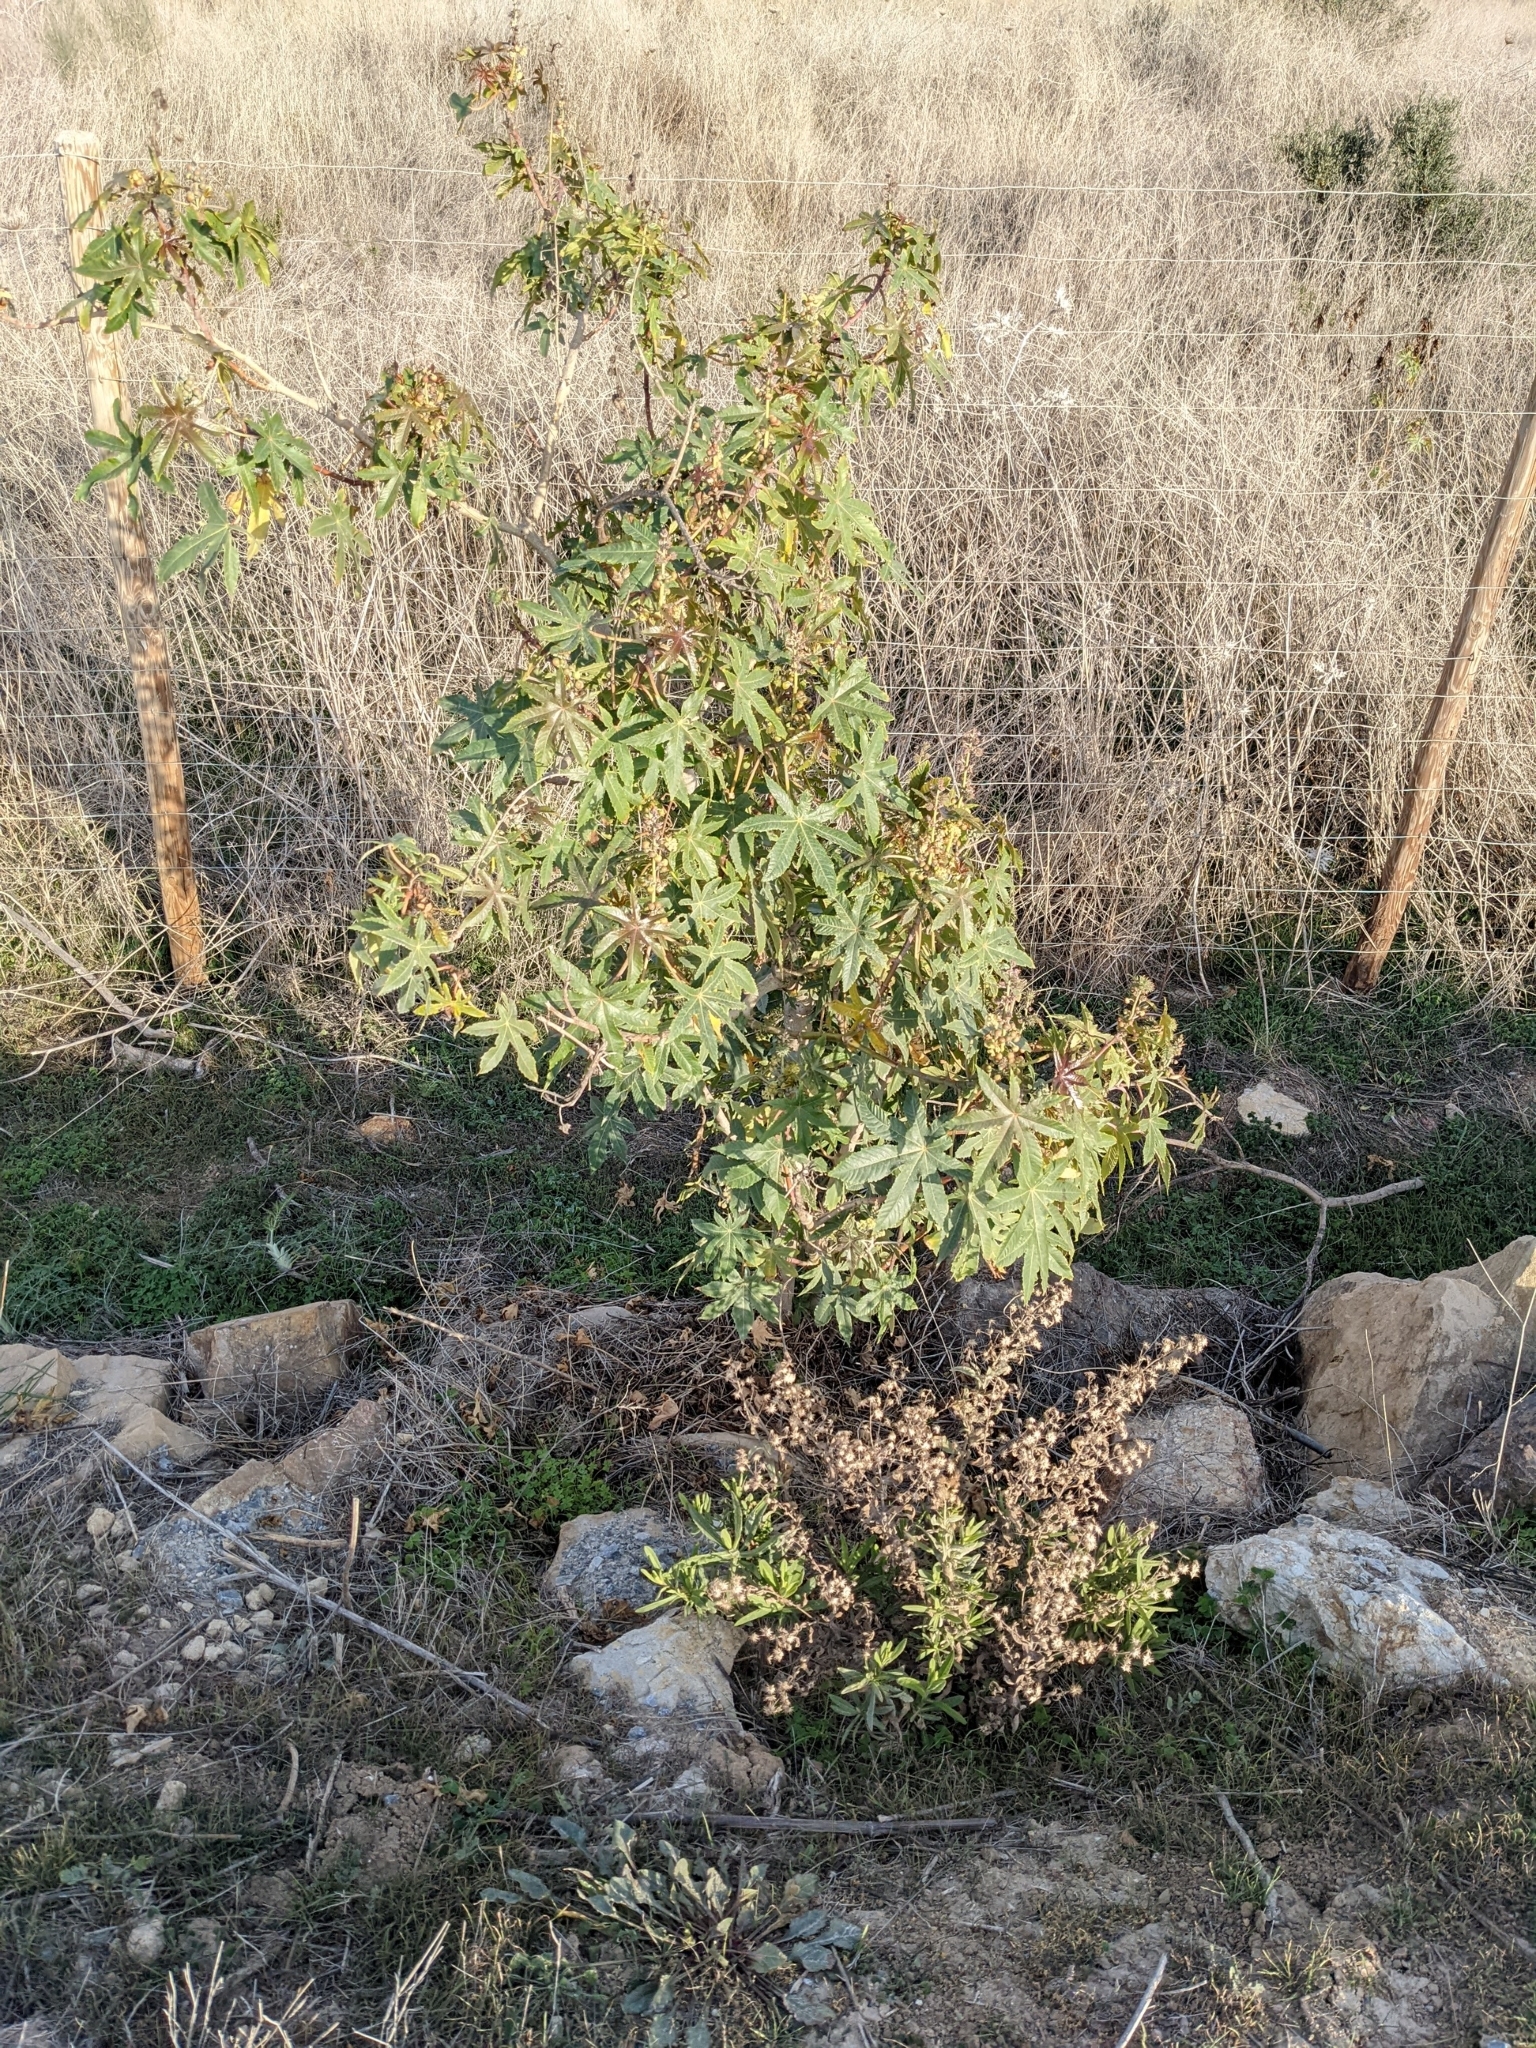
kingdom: Plantae
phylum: Tracheophyta
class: Magnoliopsida
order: Malpighiales
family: Euphorbiaceae
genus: Ricinus
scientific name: Ricinus communis
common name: Castor-oil-plant
